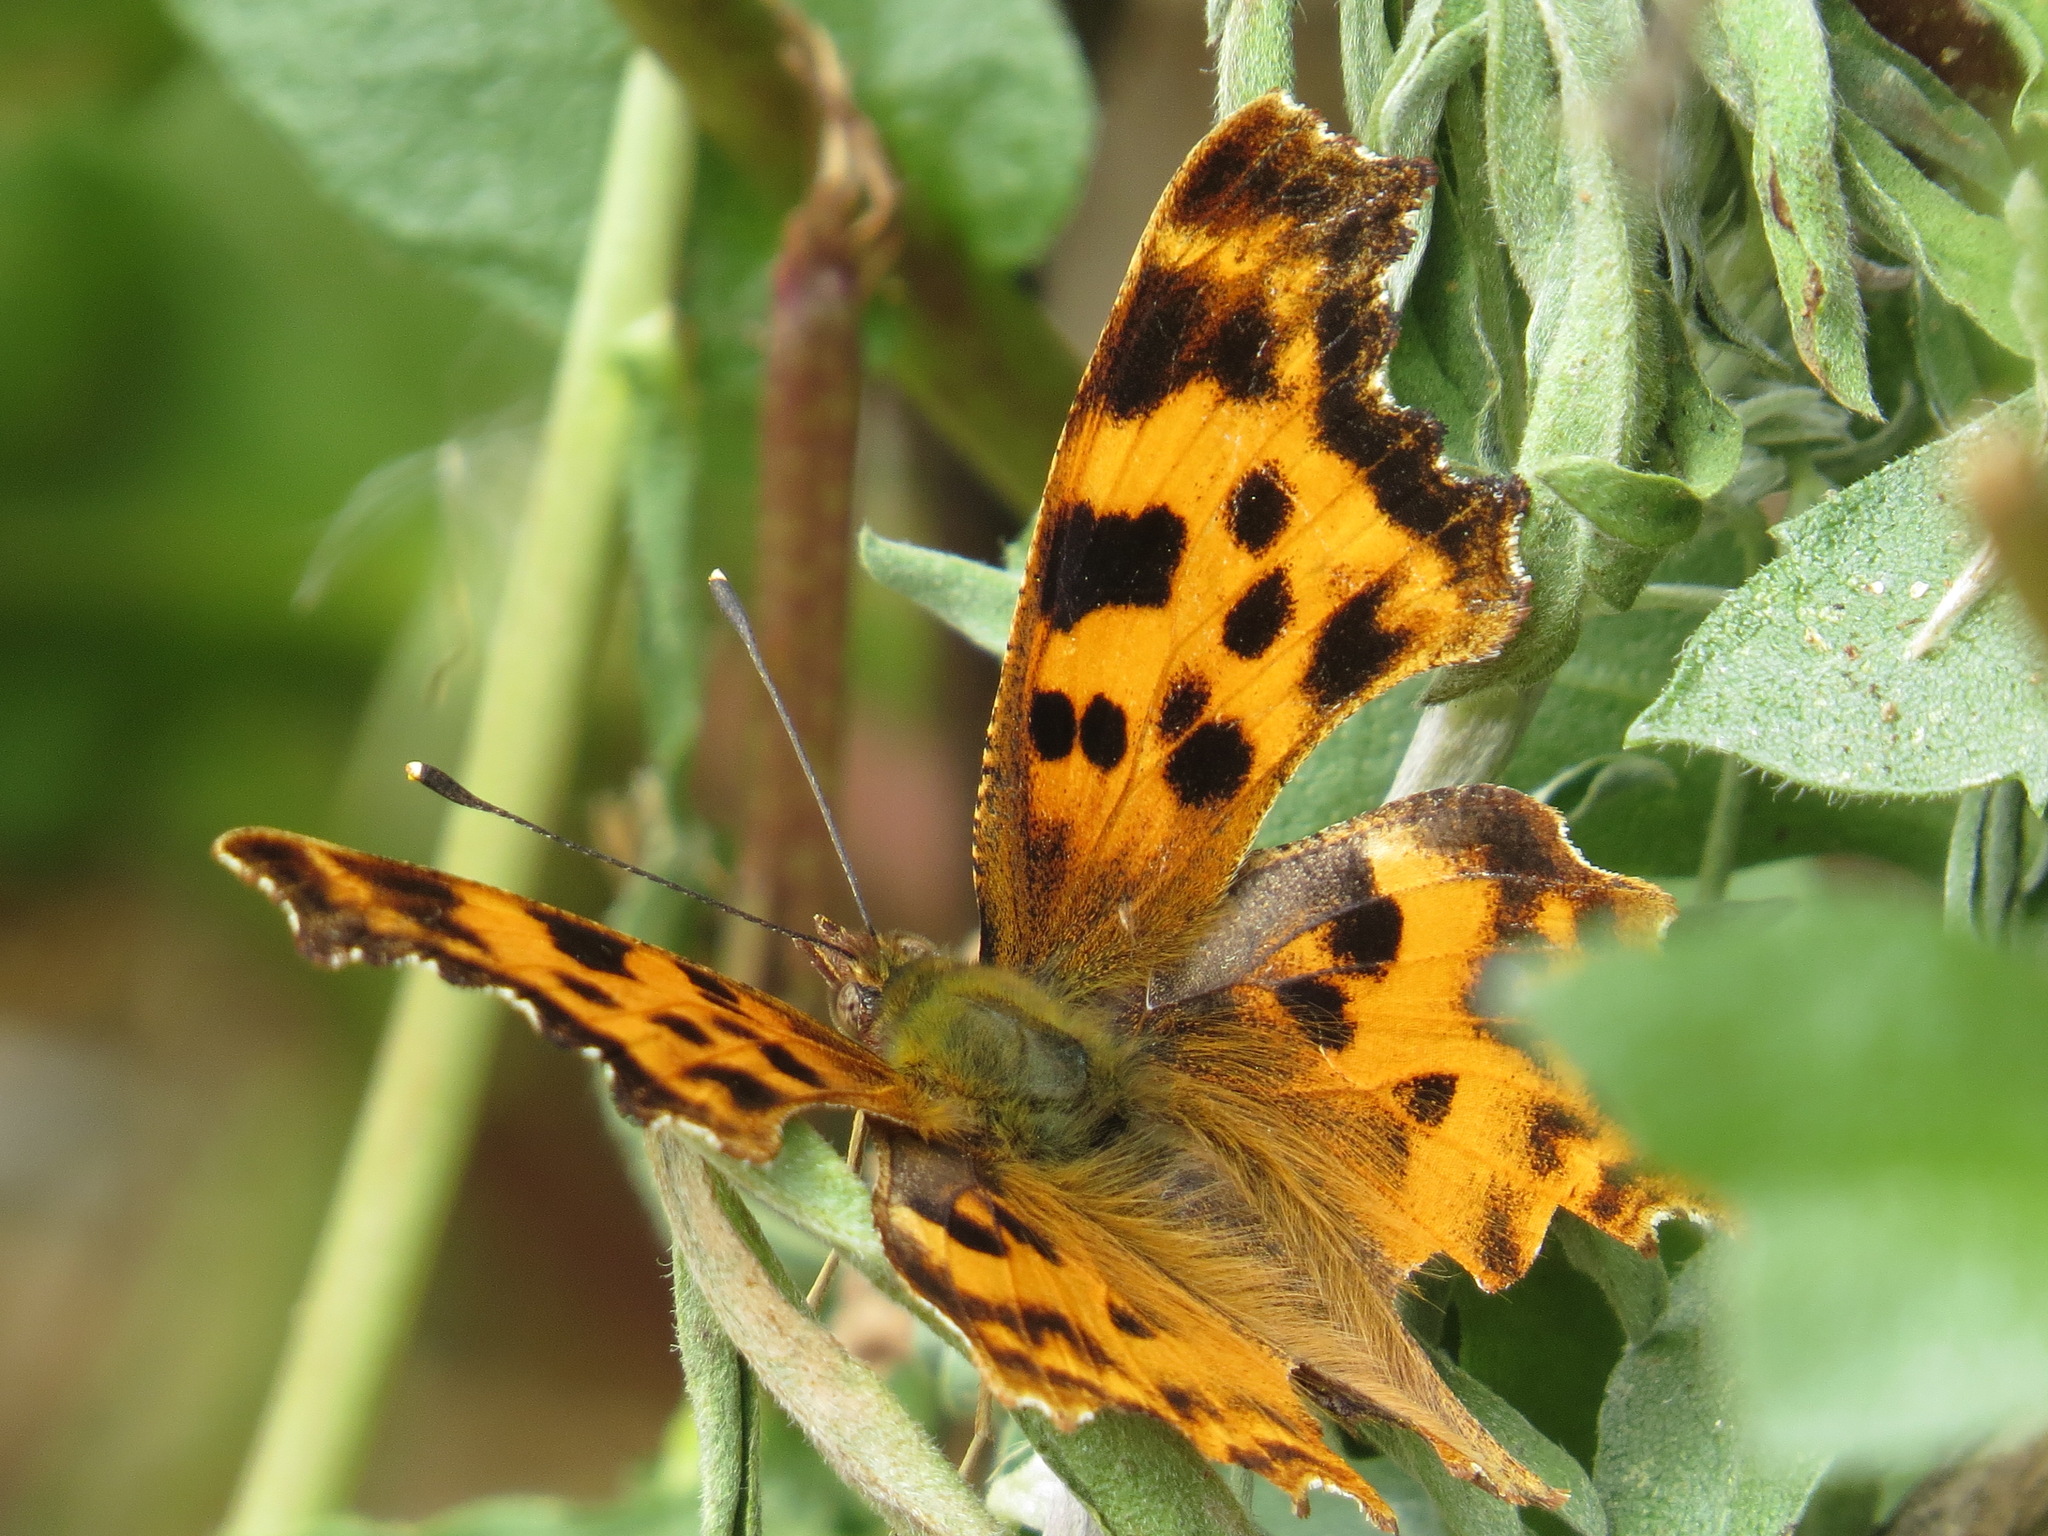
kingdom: Animalia
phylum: Arthropoda
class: Insecta
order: Lepidoptera
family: Nymphalidae
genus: Polygonia
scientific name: Polygonia satyrus
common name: Satyr angle wing
